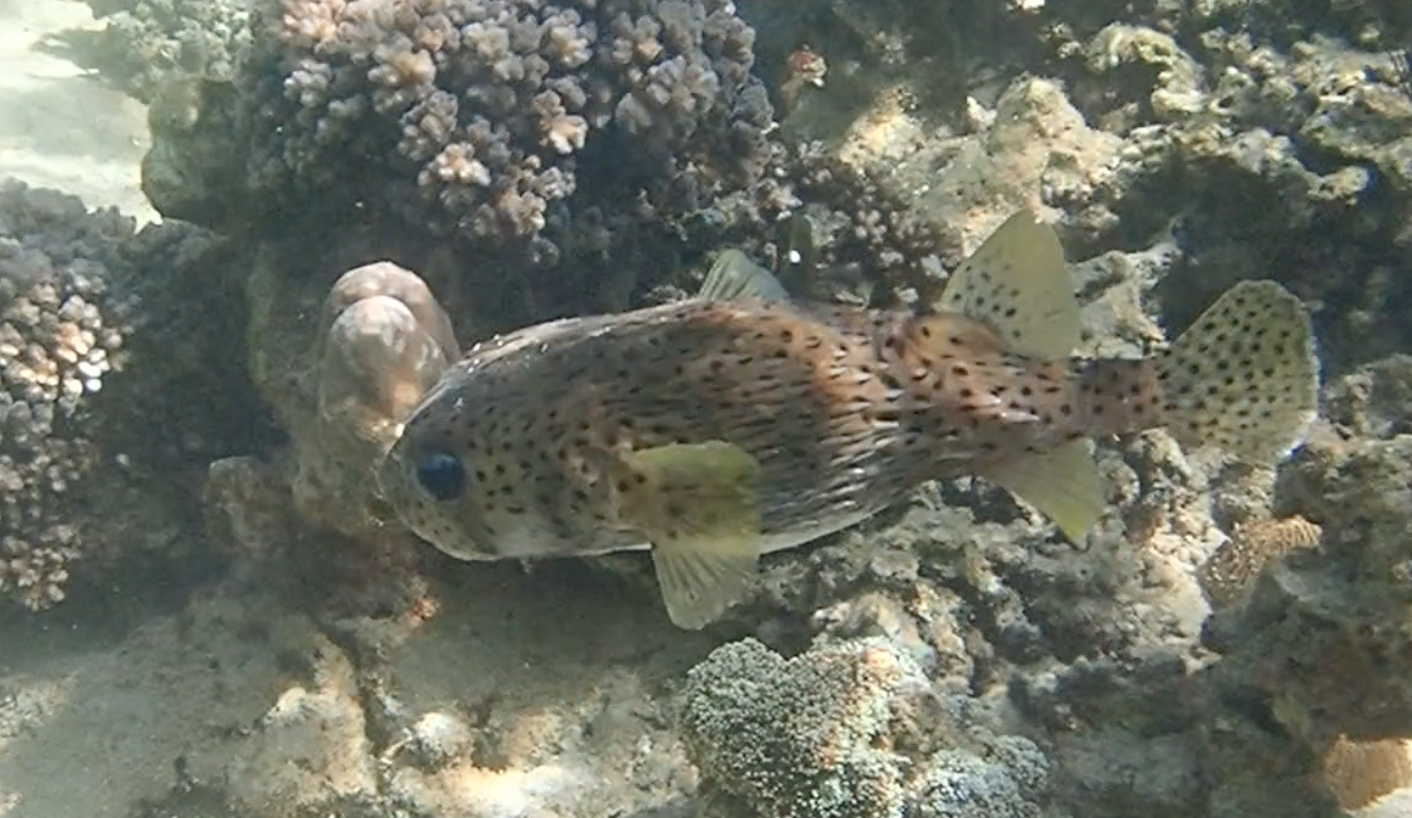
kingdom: Animalia
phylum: Chordata
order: Tetraodontiformes
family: Diodontidae
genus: Diodon
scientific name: Diodon hystrix
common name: Giant porcupinefish
